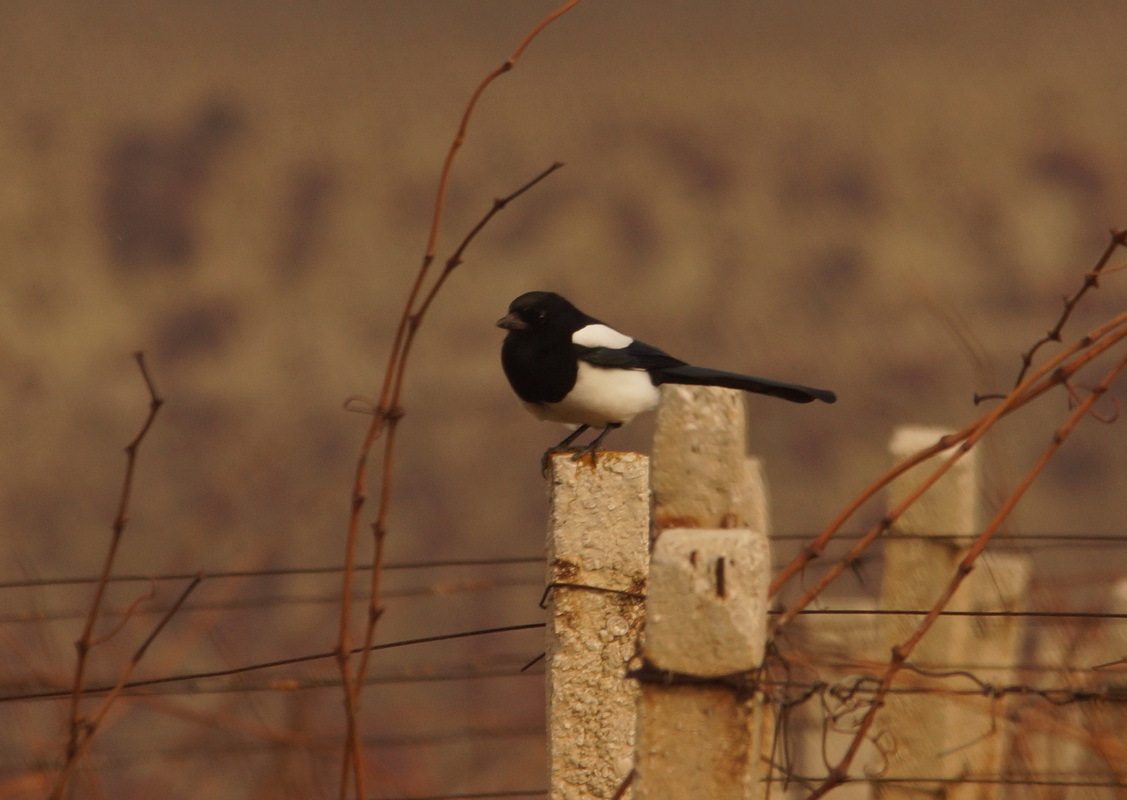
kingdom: Animalia
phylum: Chordata
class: Aves
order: Passeriformes
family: Corvidae
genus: Pica
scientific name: Pica pica
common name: Eurasian magpie
